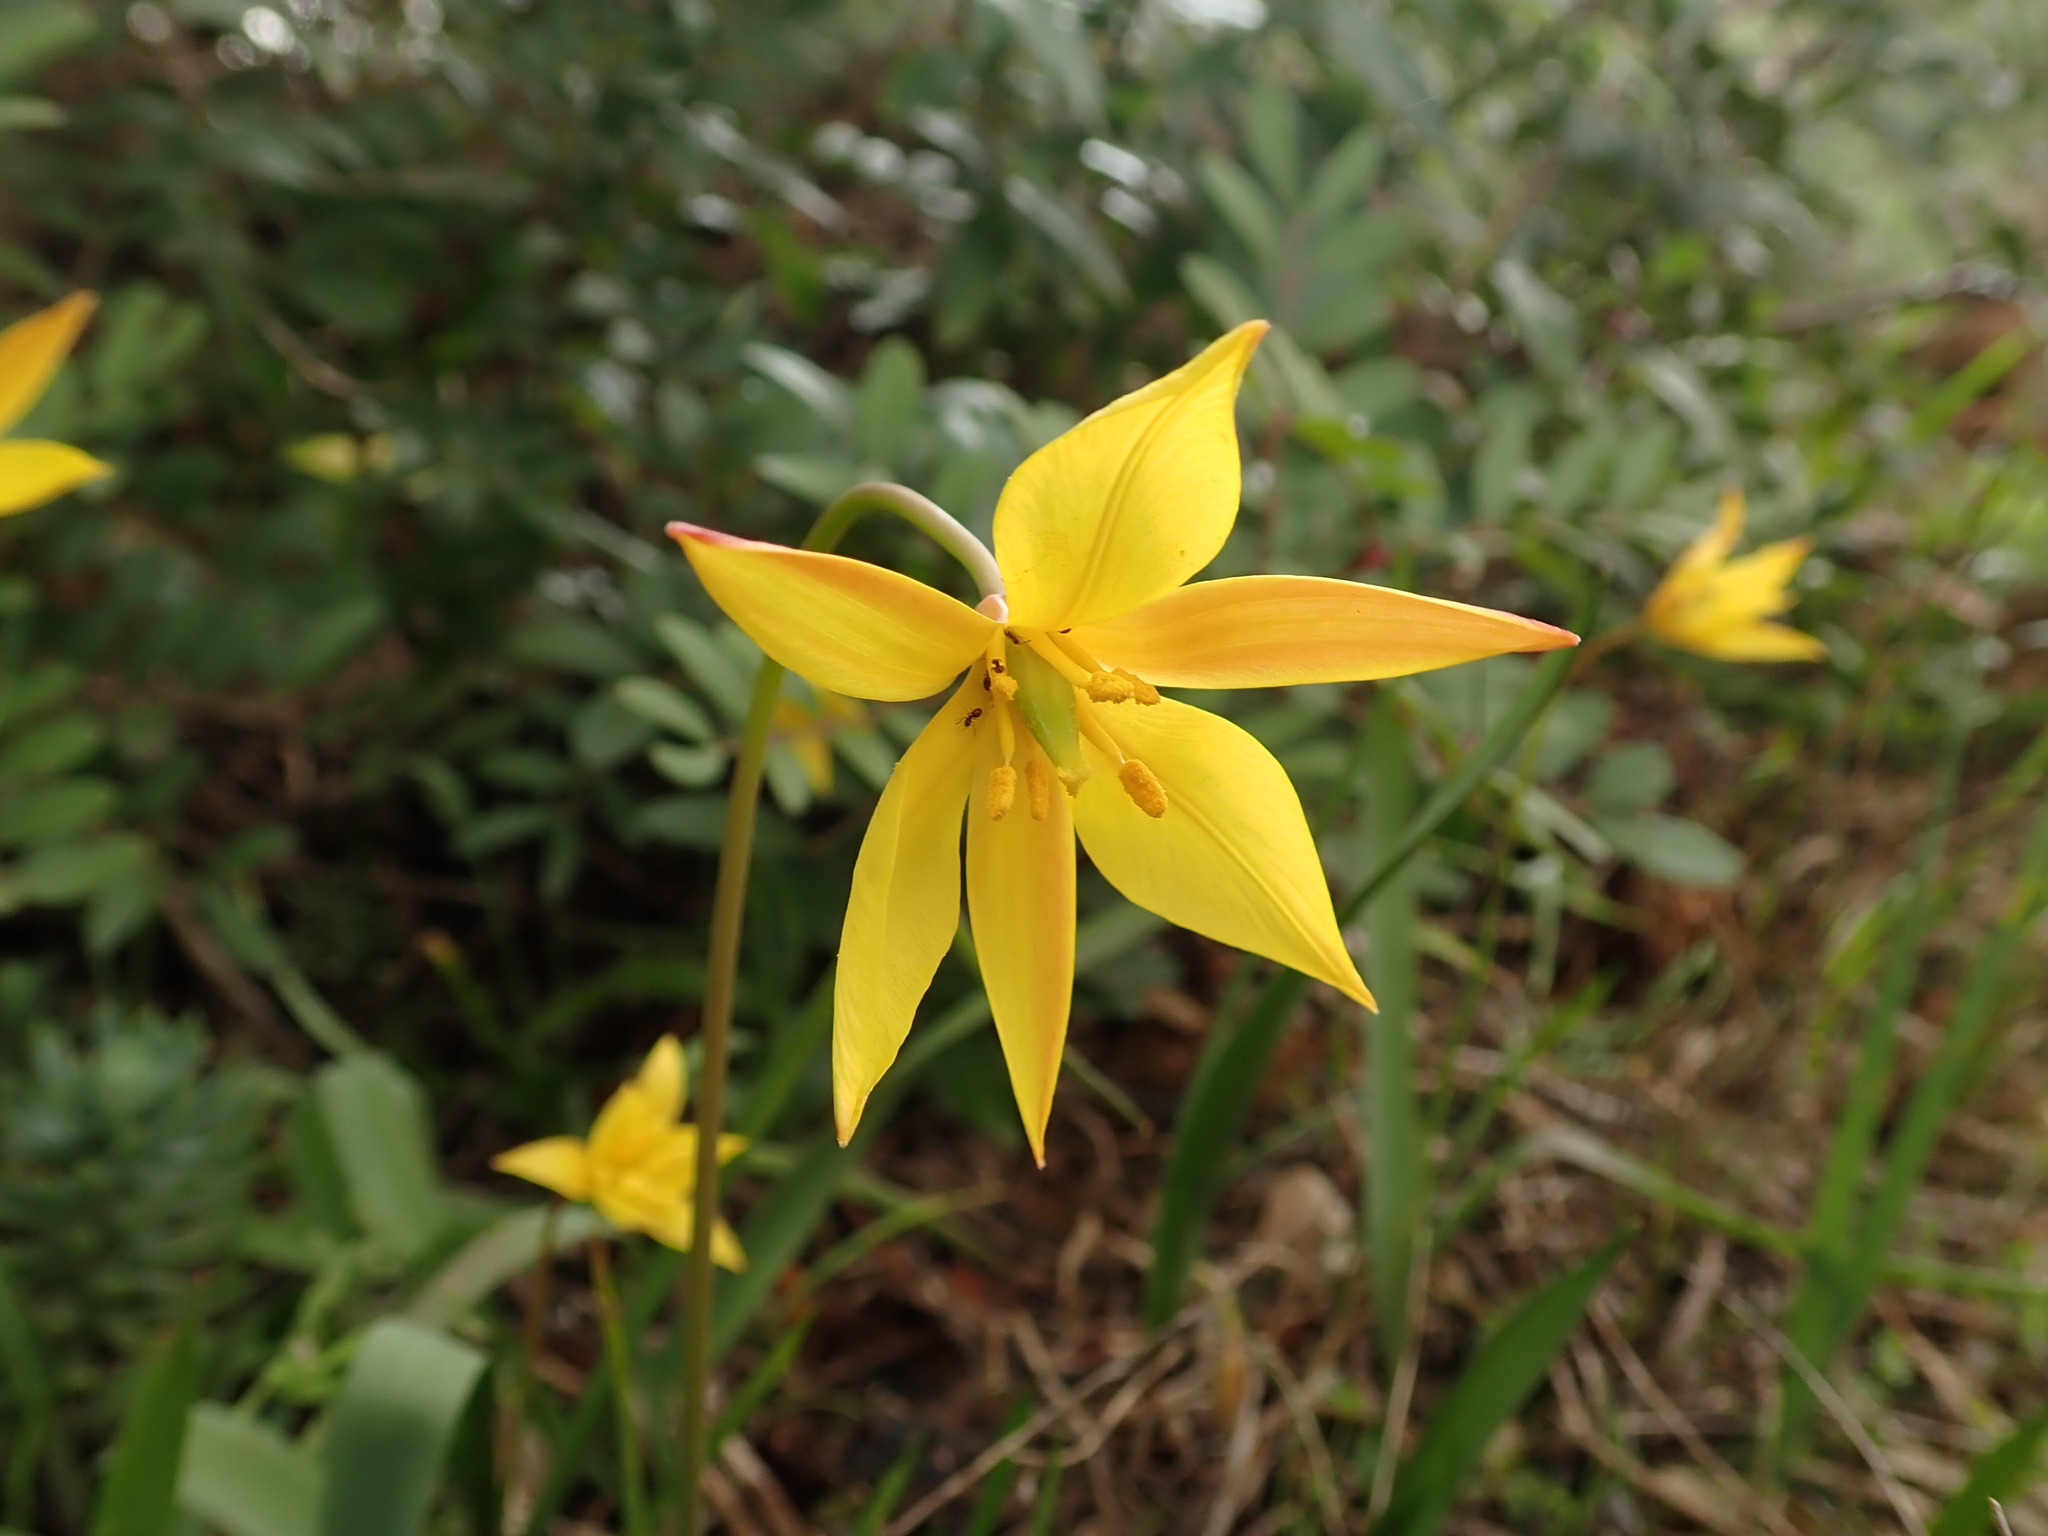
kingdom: Plantae
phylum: Tracheophyta
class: Liliopsida
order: Liliales
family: Liliaceae
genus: Tulipa
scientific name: Tulipa sylvestris
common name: Wild tulip
